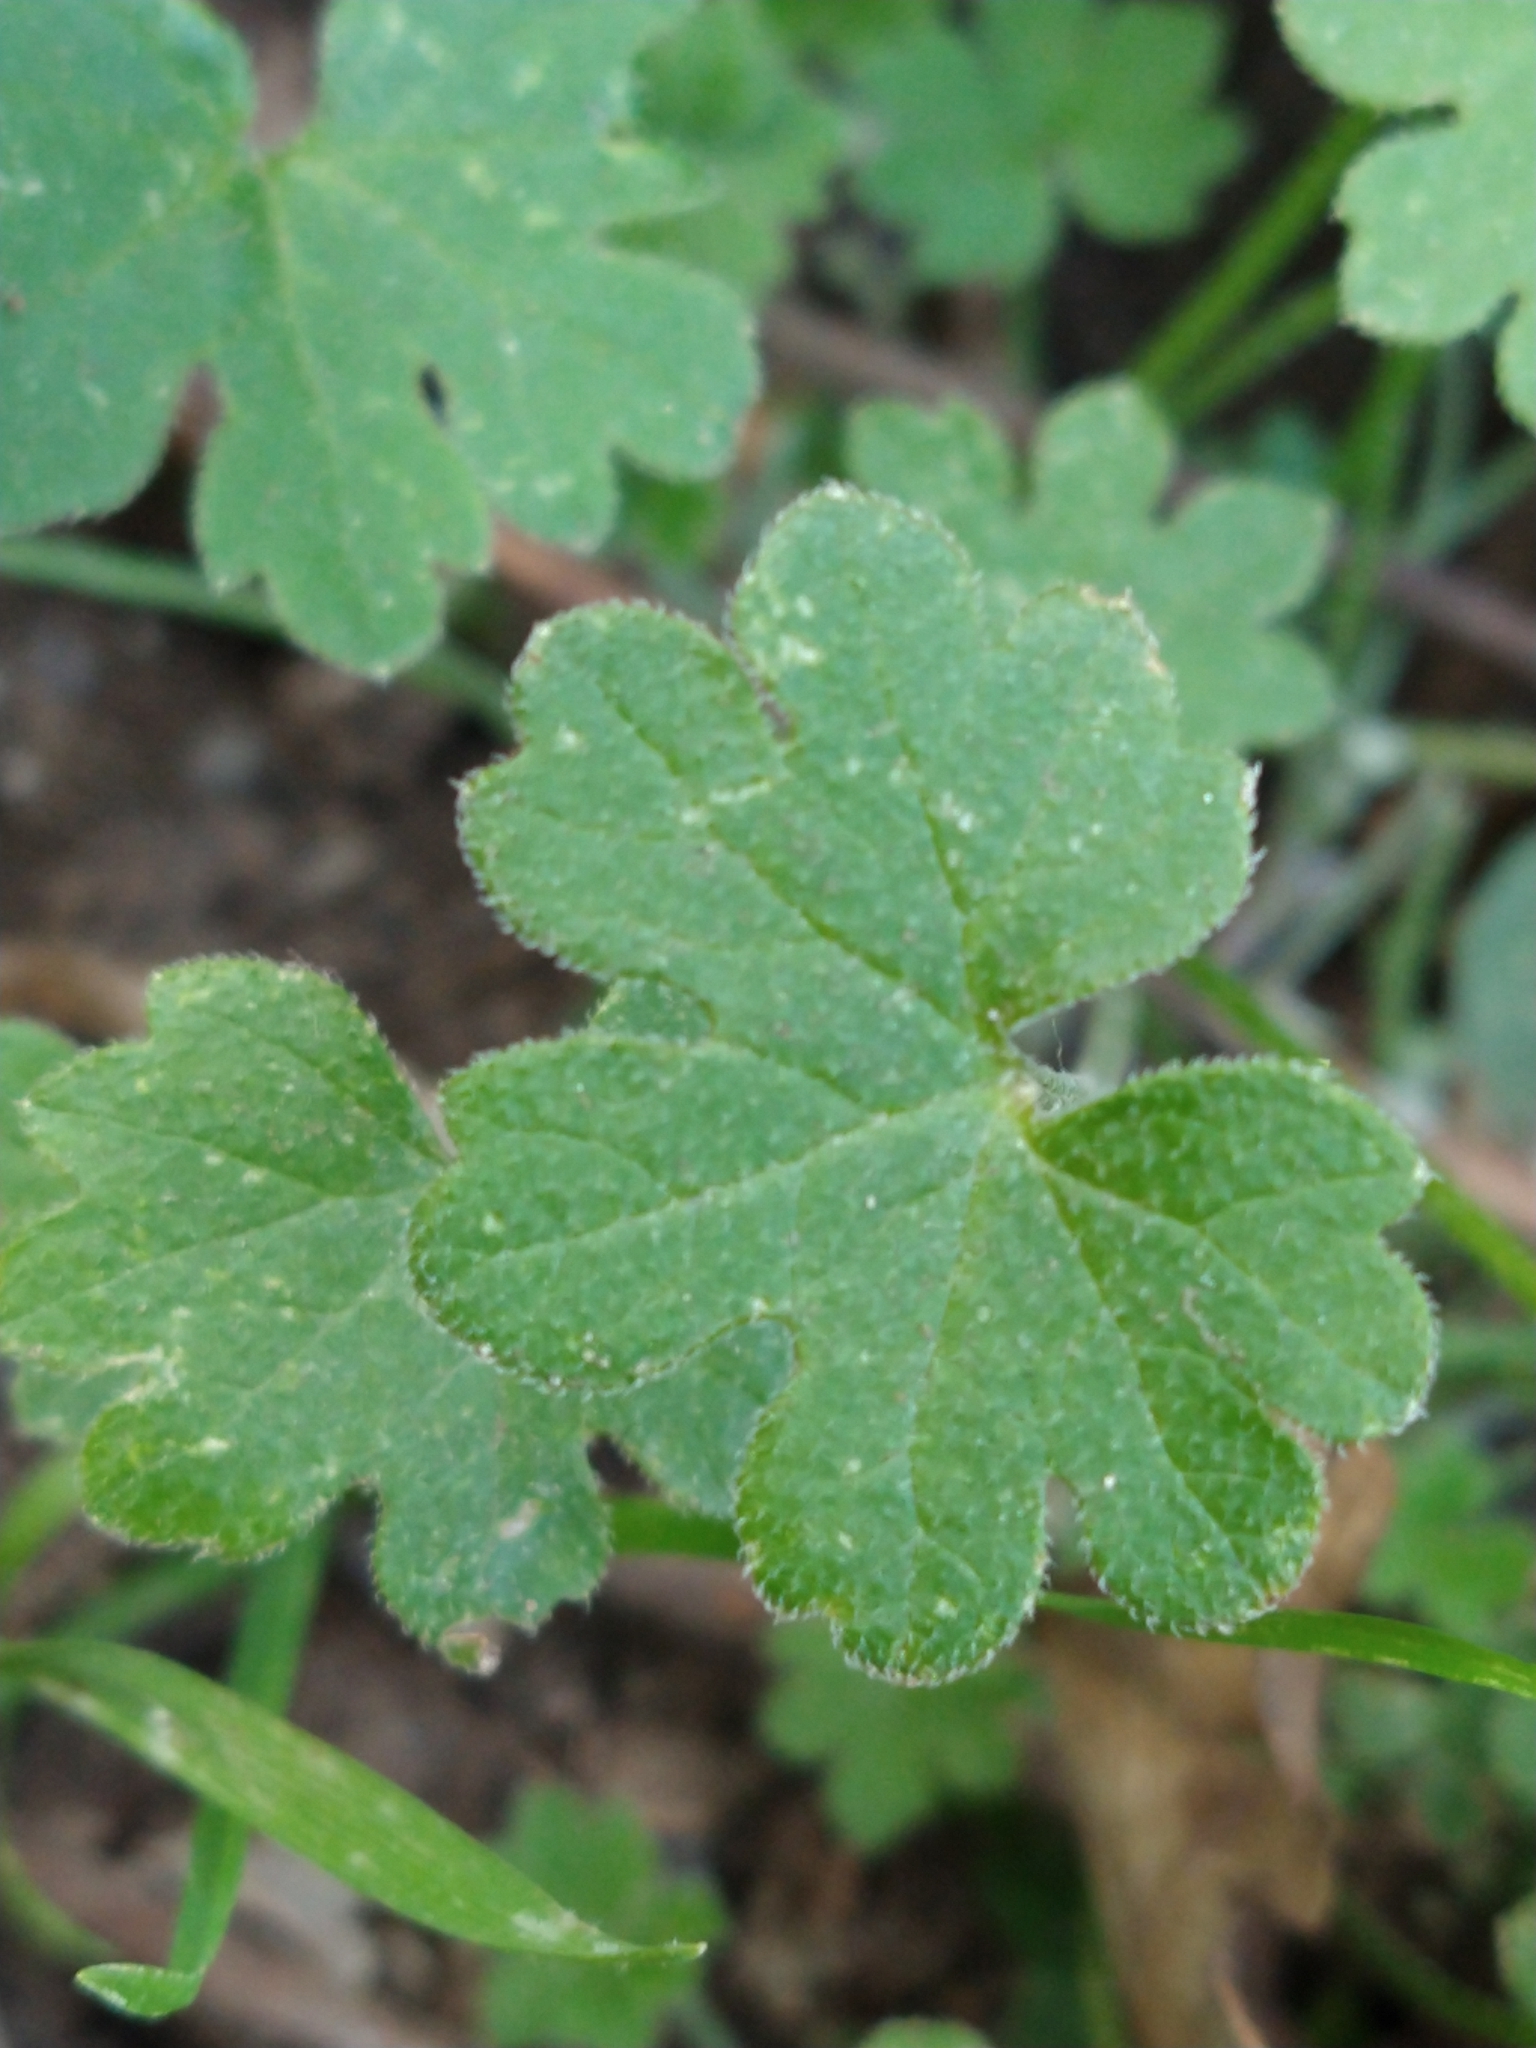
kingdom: Plantae
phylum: Tracheophyta
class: Magnoliopsida
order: Apiales
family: Apiaceae
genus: Bowlesia
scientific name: Bowlesia incana
